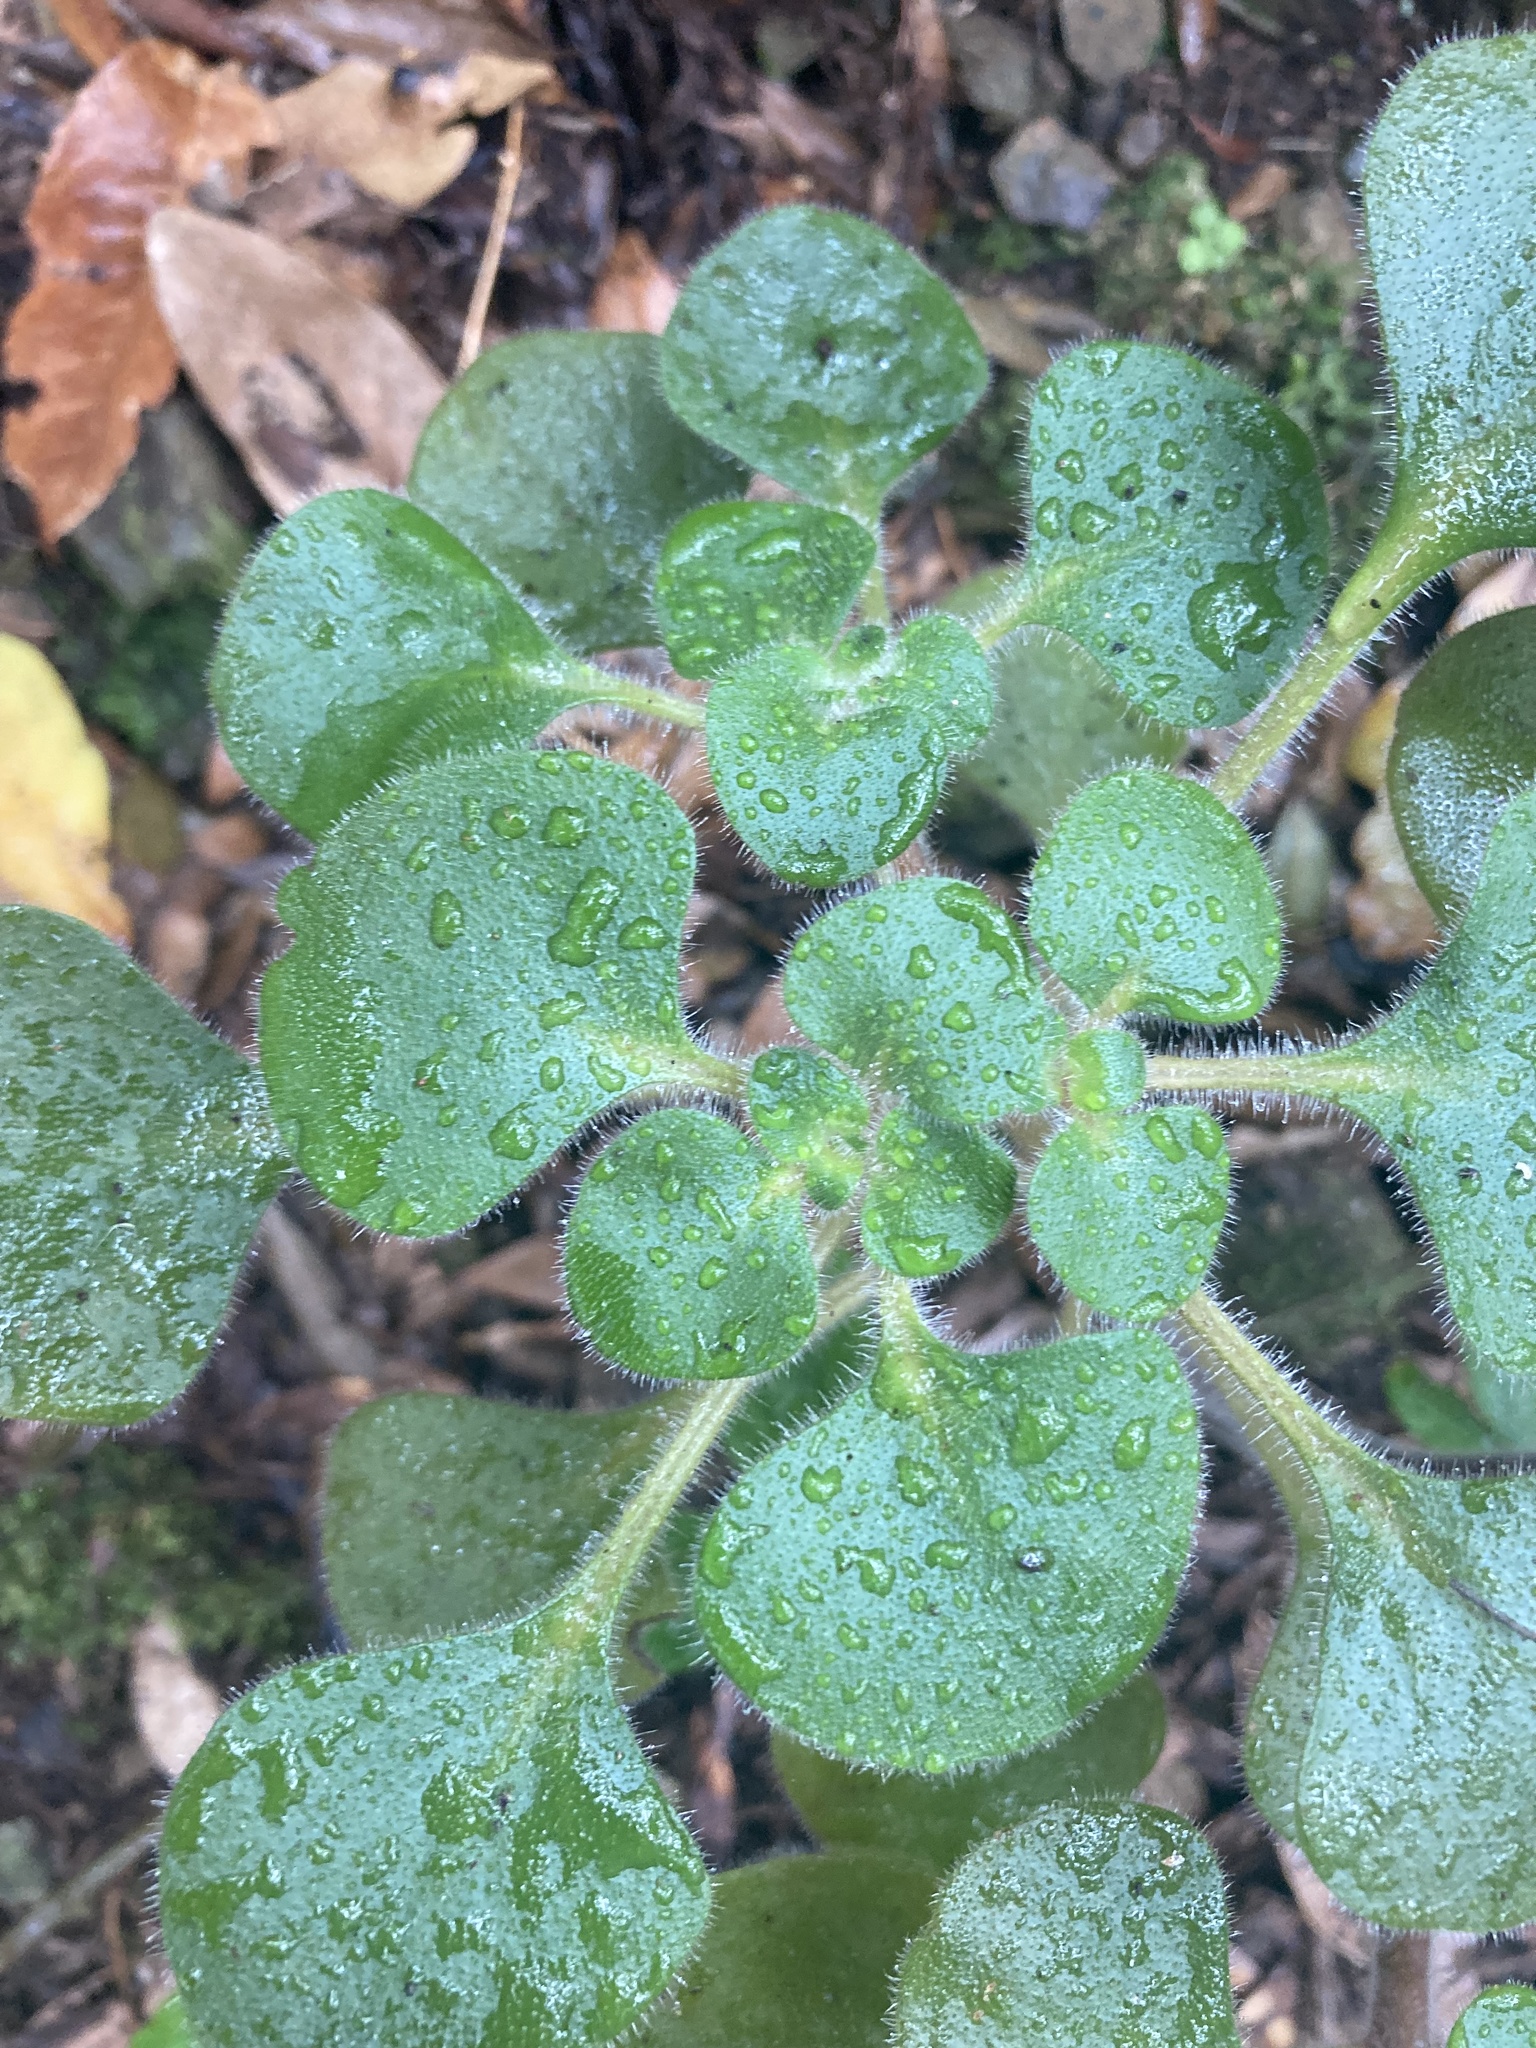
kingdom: Plantae
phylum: Tracheophyta
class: Magnoliopsida
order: Saxifragales
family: Crassulaceae
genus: Aichryson
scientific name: Aichryson laxum
